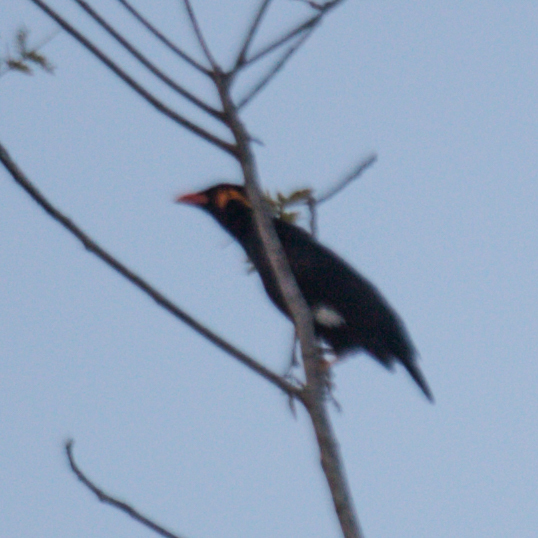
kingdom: Animalia
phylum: Chordata
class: Aves
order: Passeriformes
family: Sturnidae
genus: Gracula
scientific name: Gracula religiosa
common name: Common hill myna
